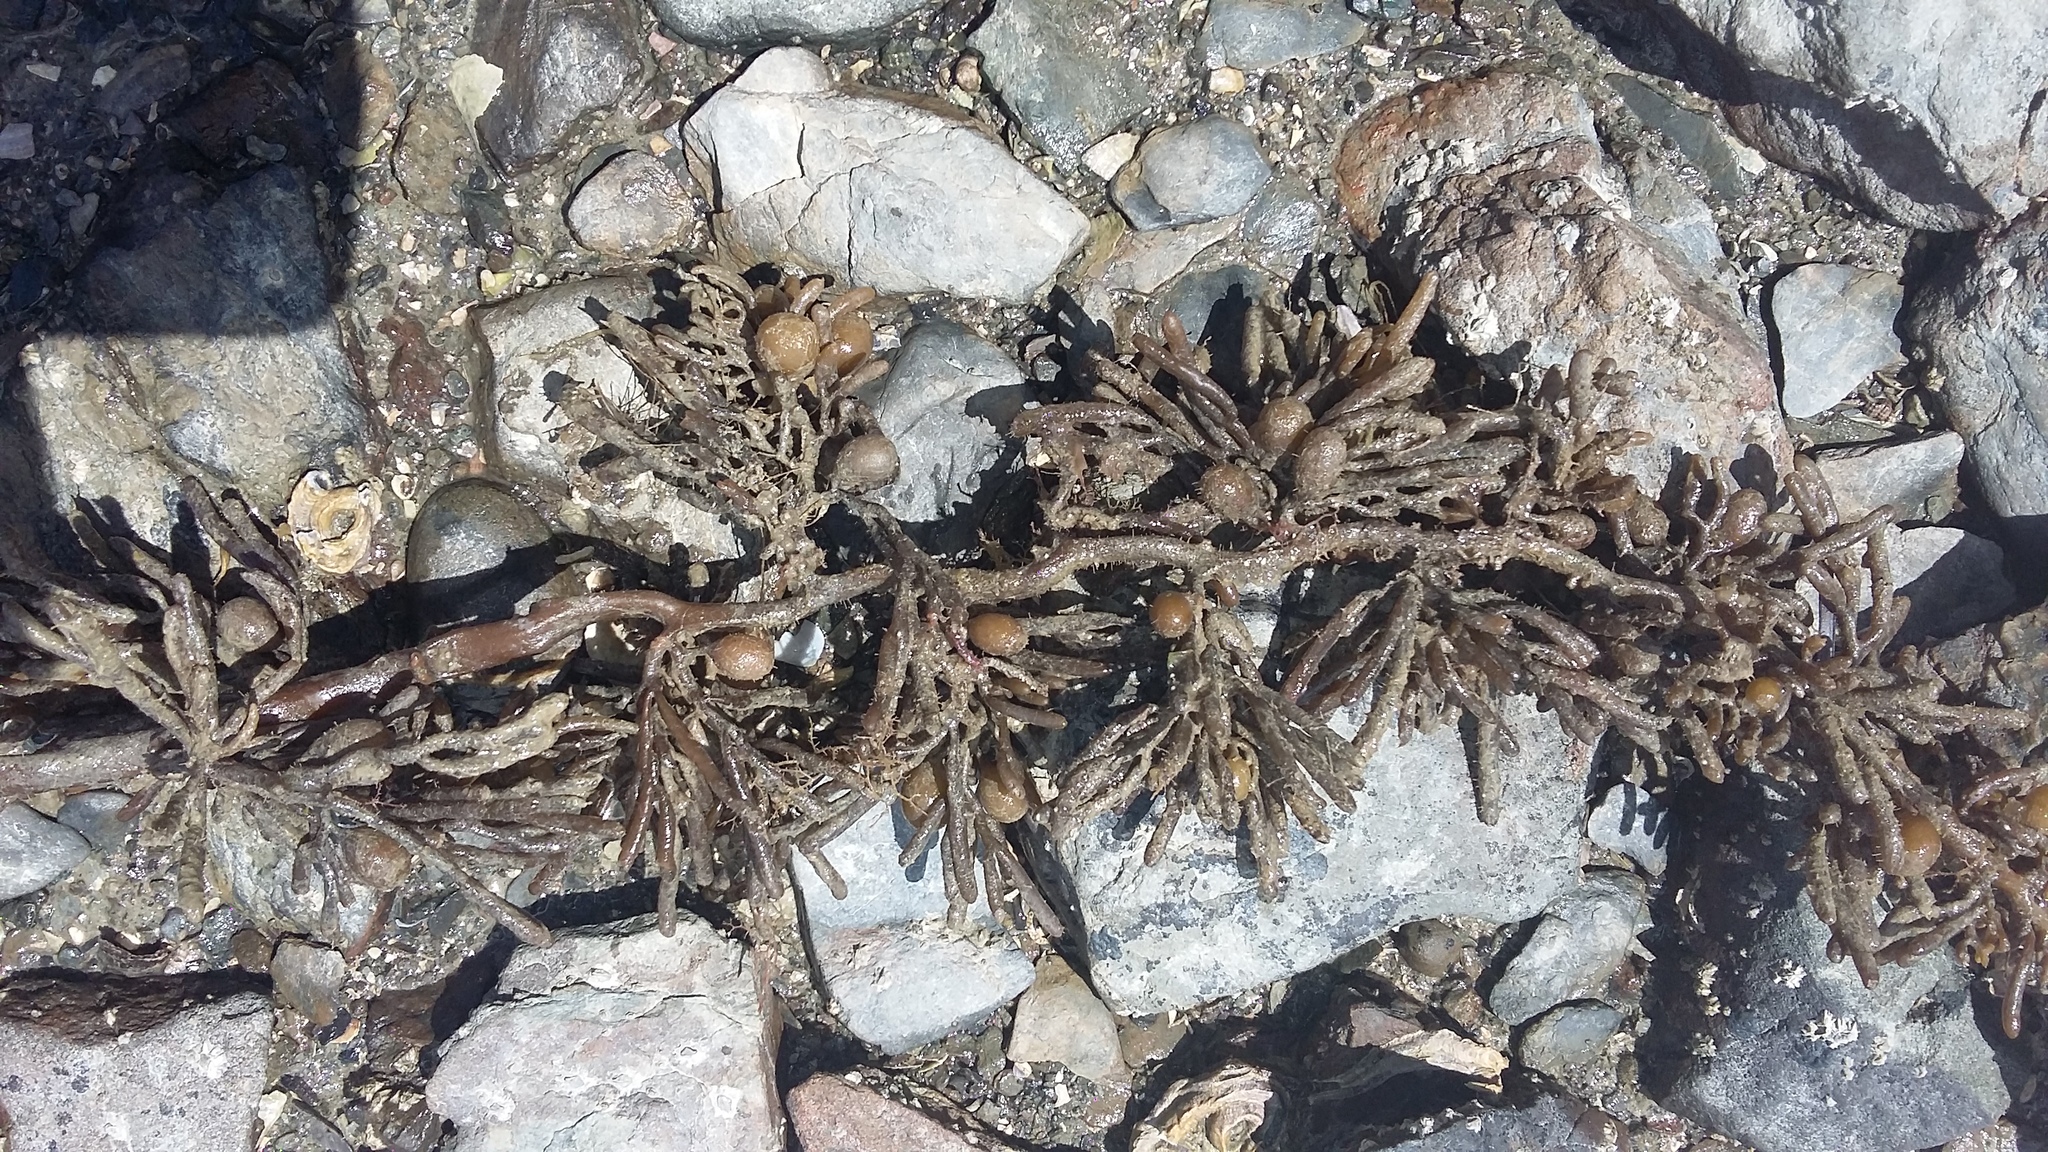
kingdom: Chromista
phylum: Ochrophyta
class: Phaeophyceae
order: Fucales
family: Sargassaceae
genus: Cystophora
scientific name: Cystophora torulosa
